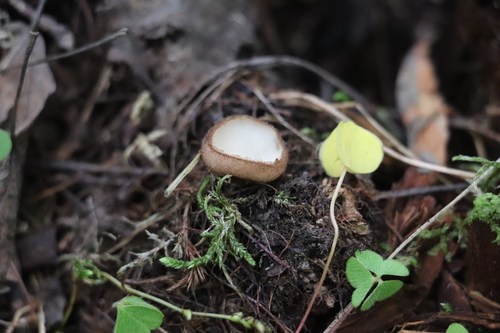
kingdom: Fungi
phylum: Ascomycota
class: Pezizomycetes
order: Pezizales
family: Pyronemataceae
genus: Humaria
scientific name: Humaria hemisphaerica
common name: Glazed cup
